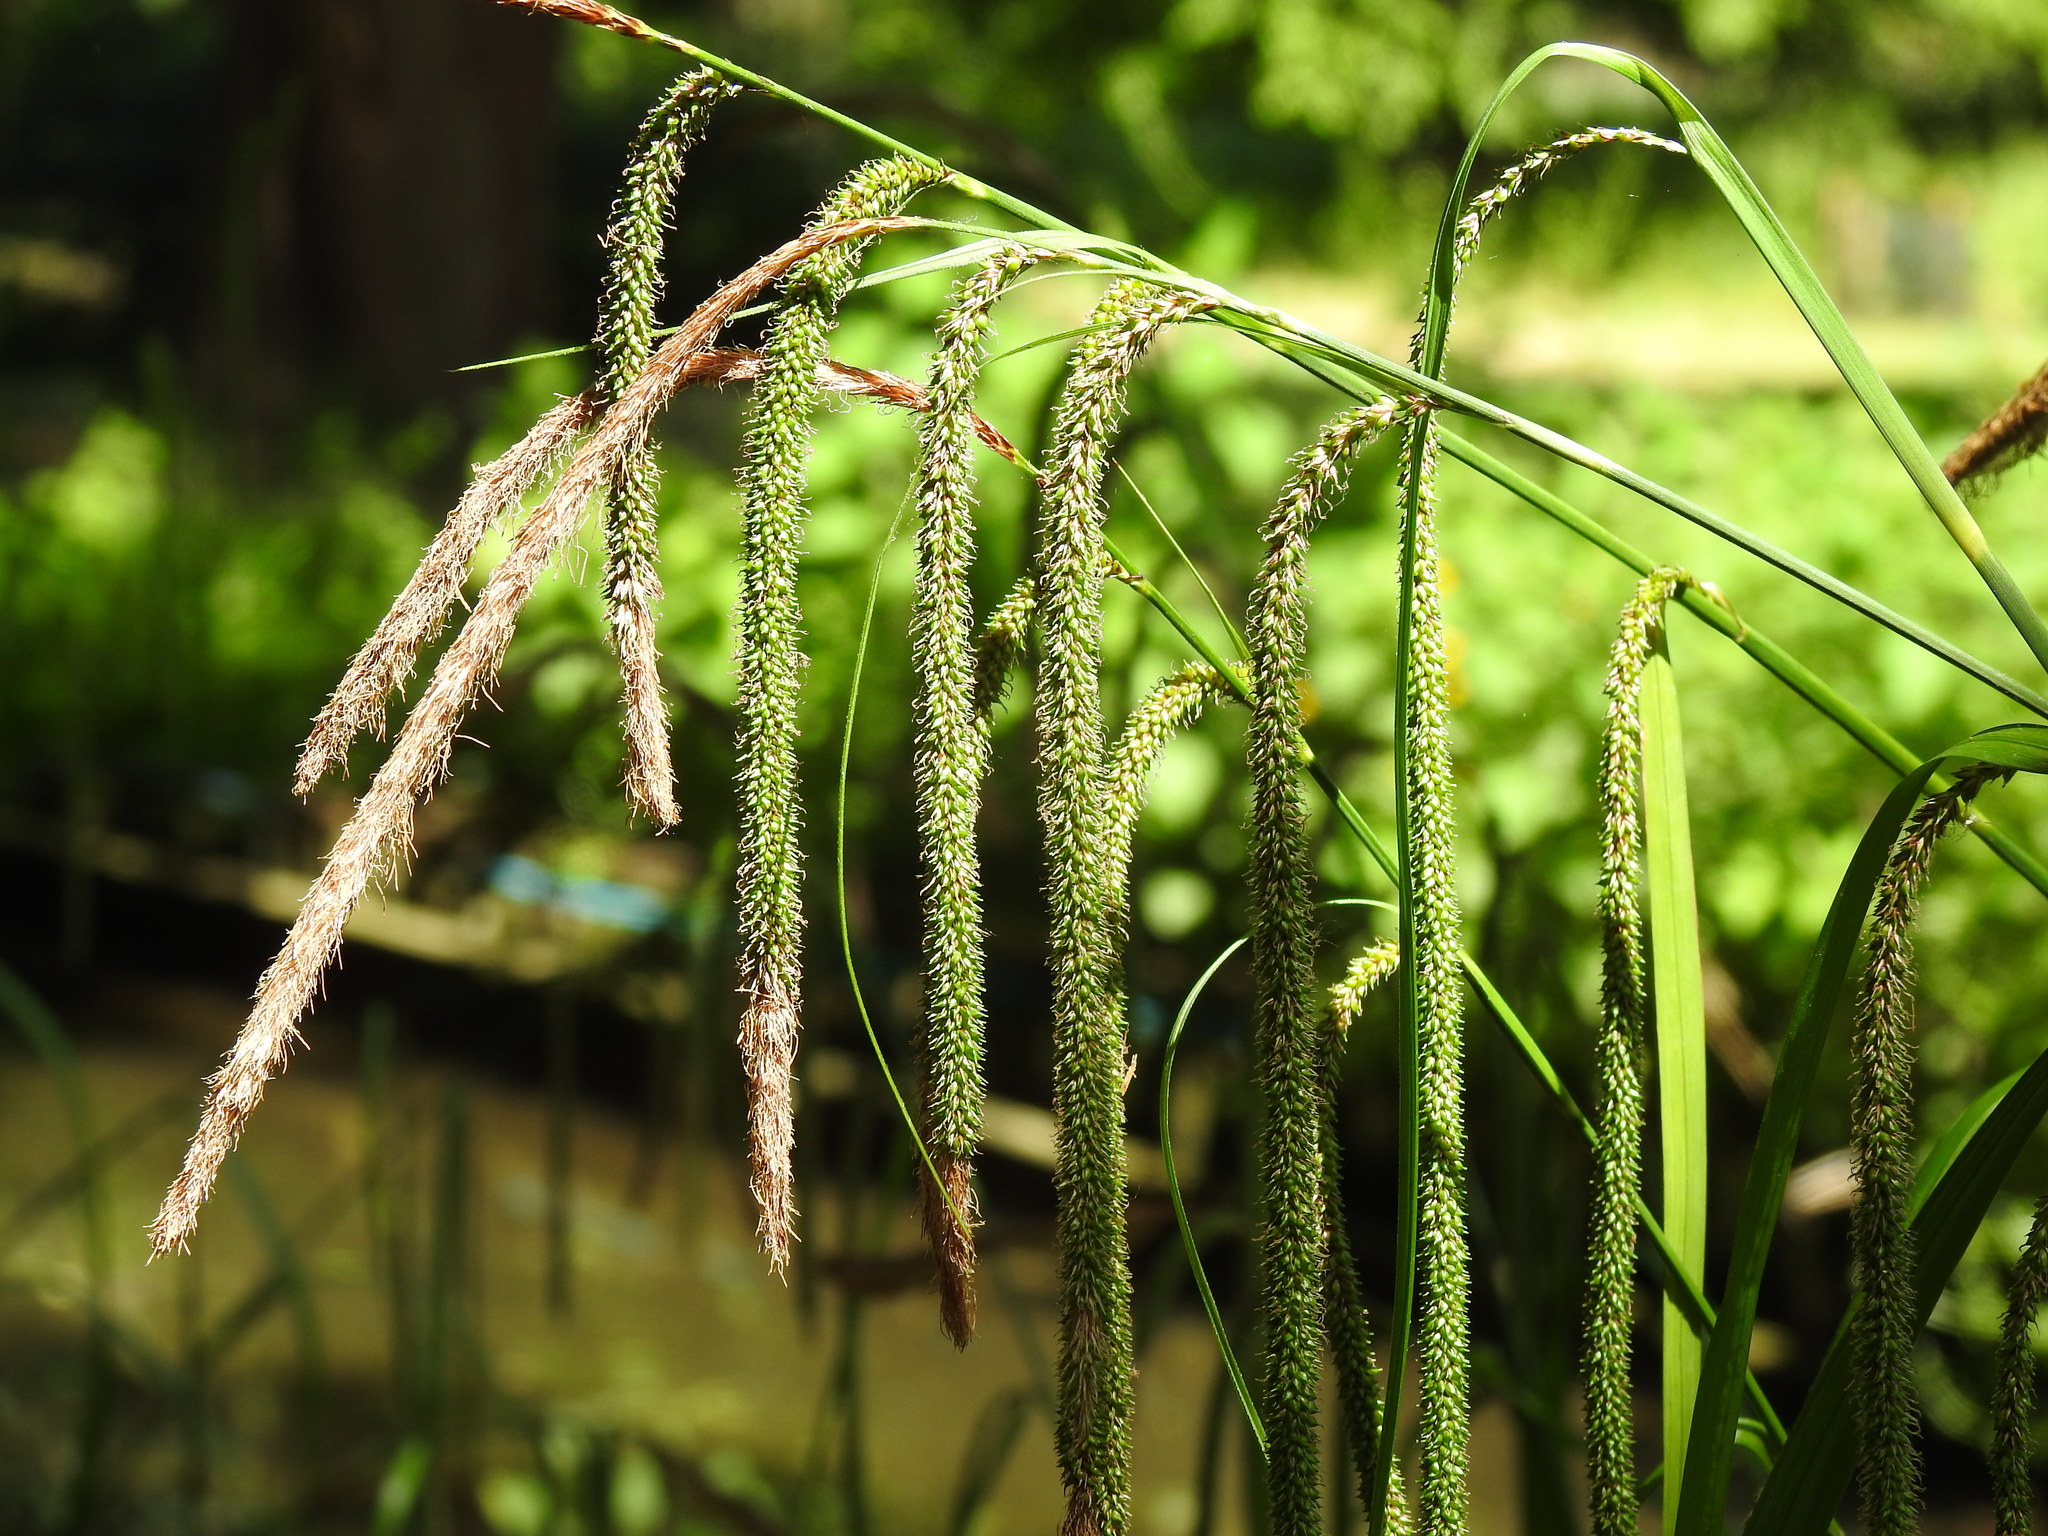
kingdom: Plantae
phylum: Tracheophyta
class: Liliopsida
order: Poales
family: Cyperaceae
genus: Carex
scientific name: Carex pendula
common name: Pendulous sedge
